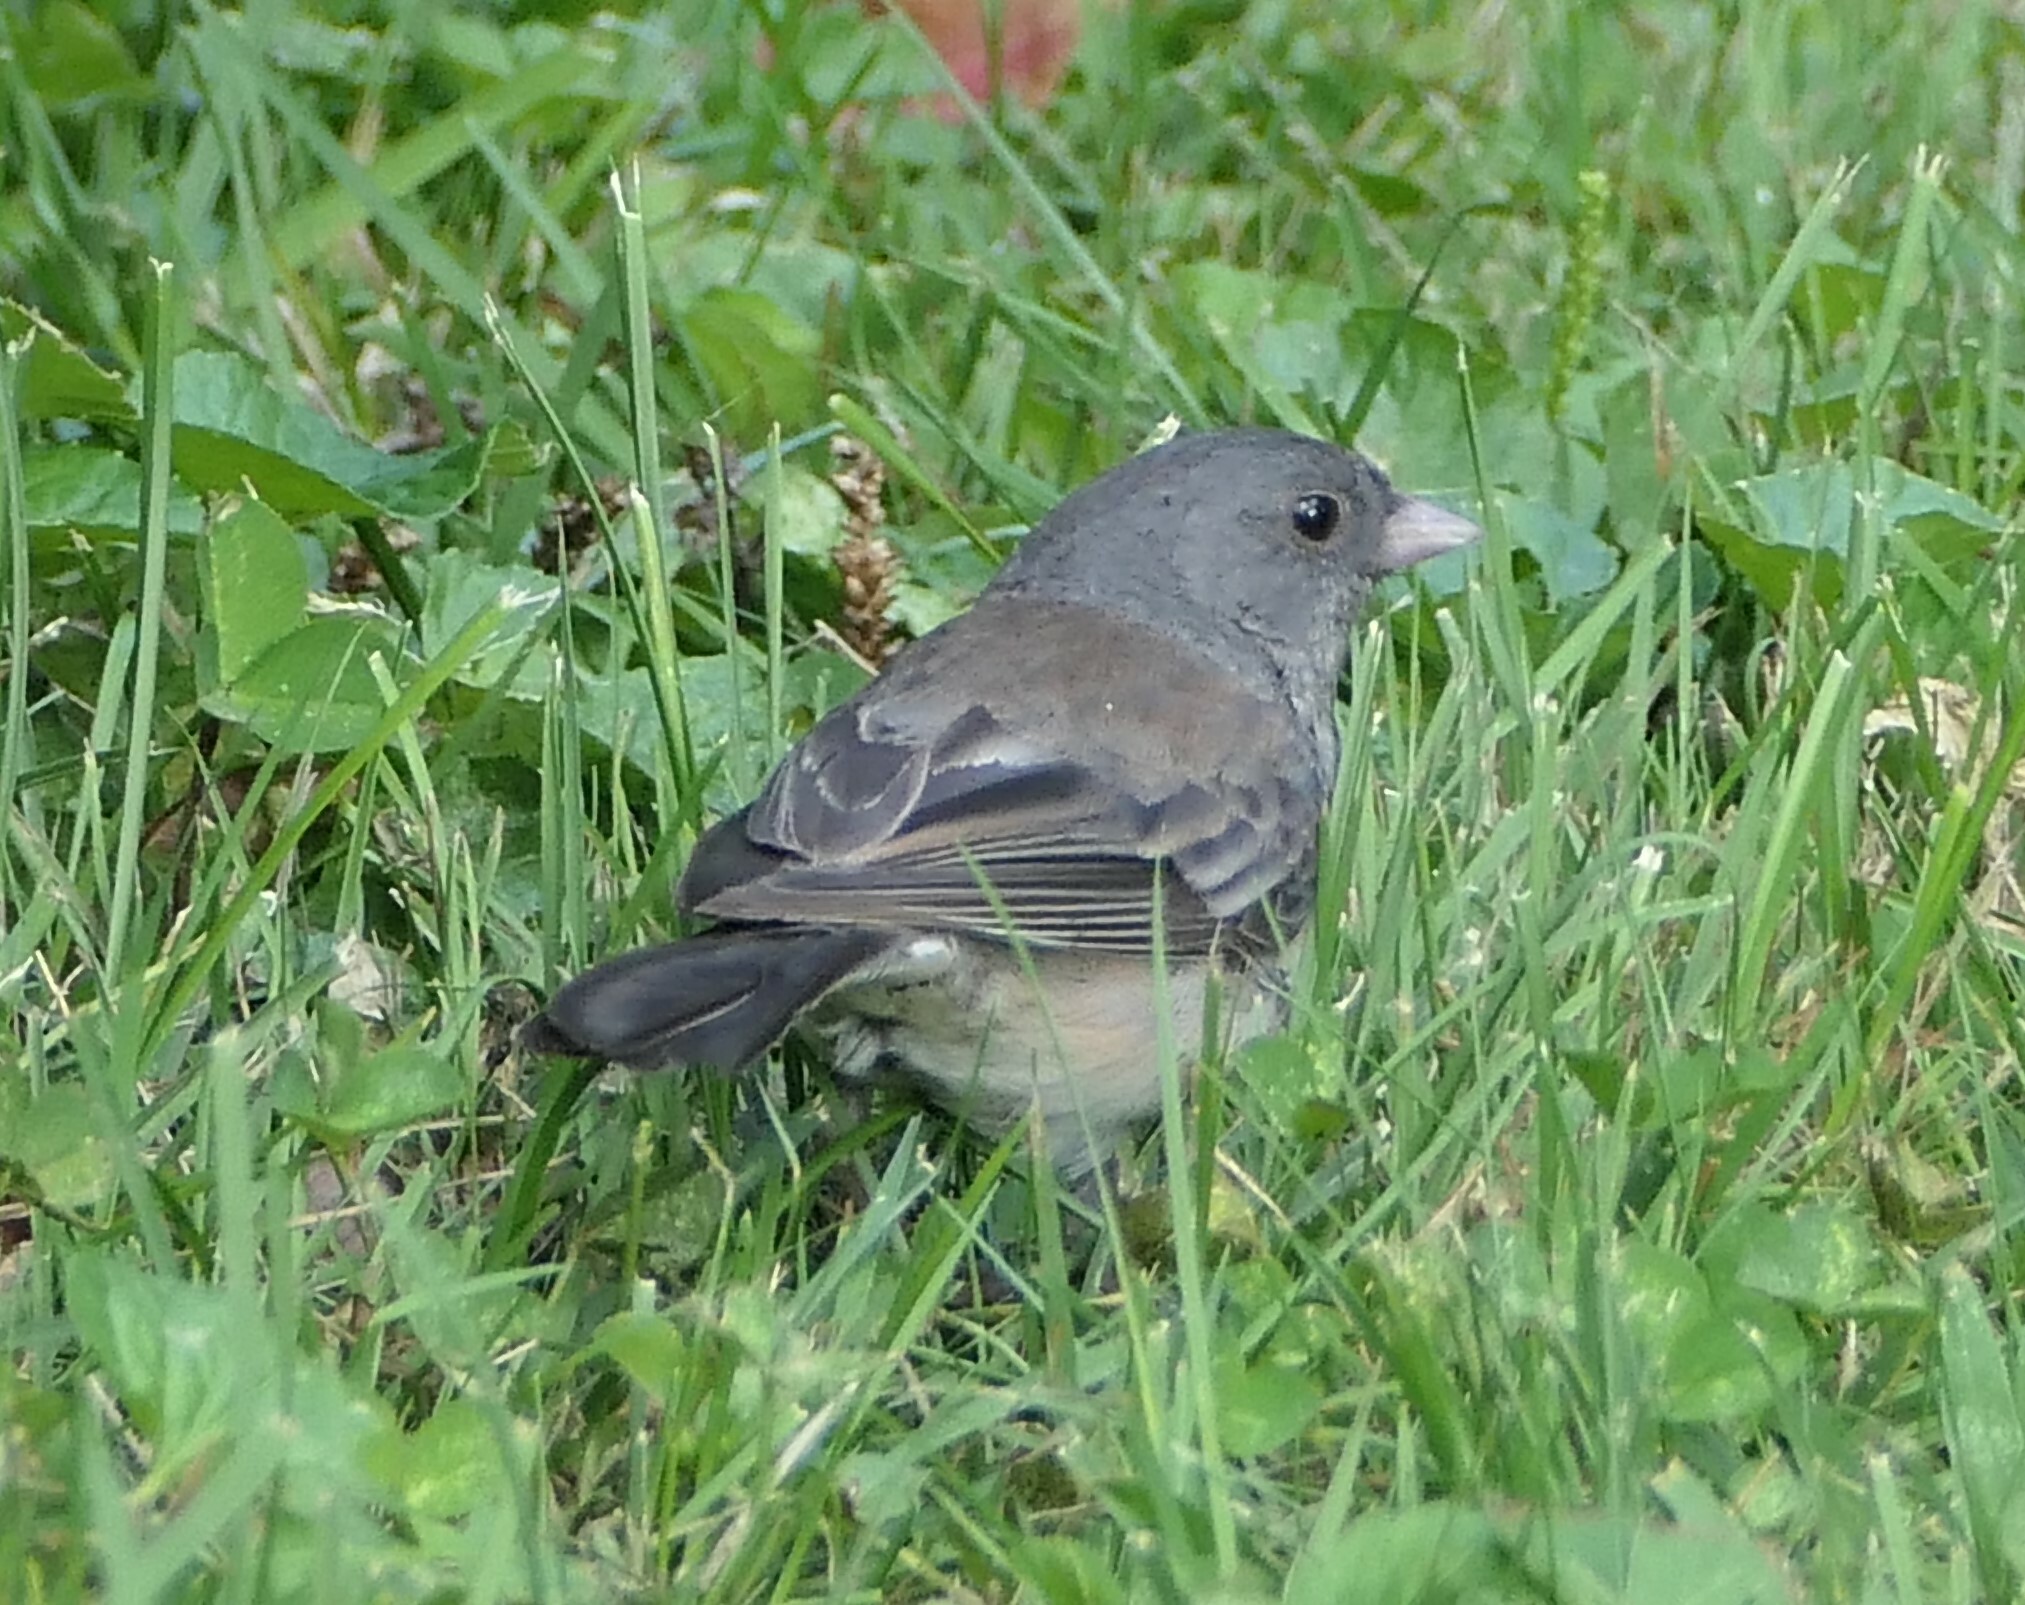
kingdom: Animalia
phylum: Chordata
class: Aves
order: Passeriformes
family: Passerellidae
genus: Junco
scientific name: Junco hyemalis
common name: Dark-eyed junco
